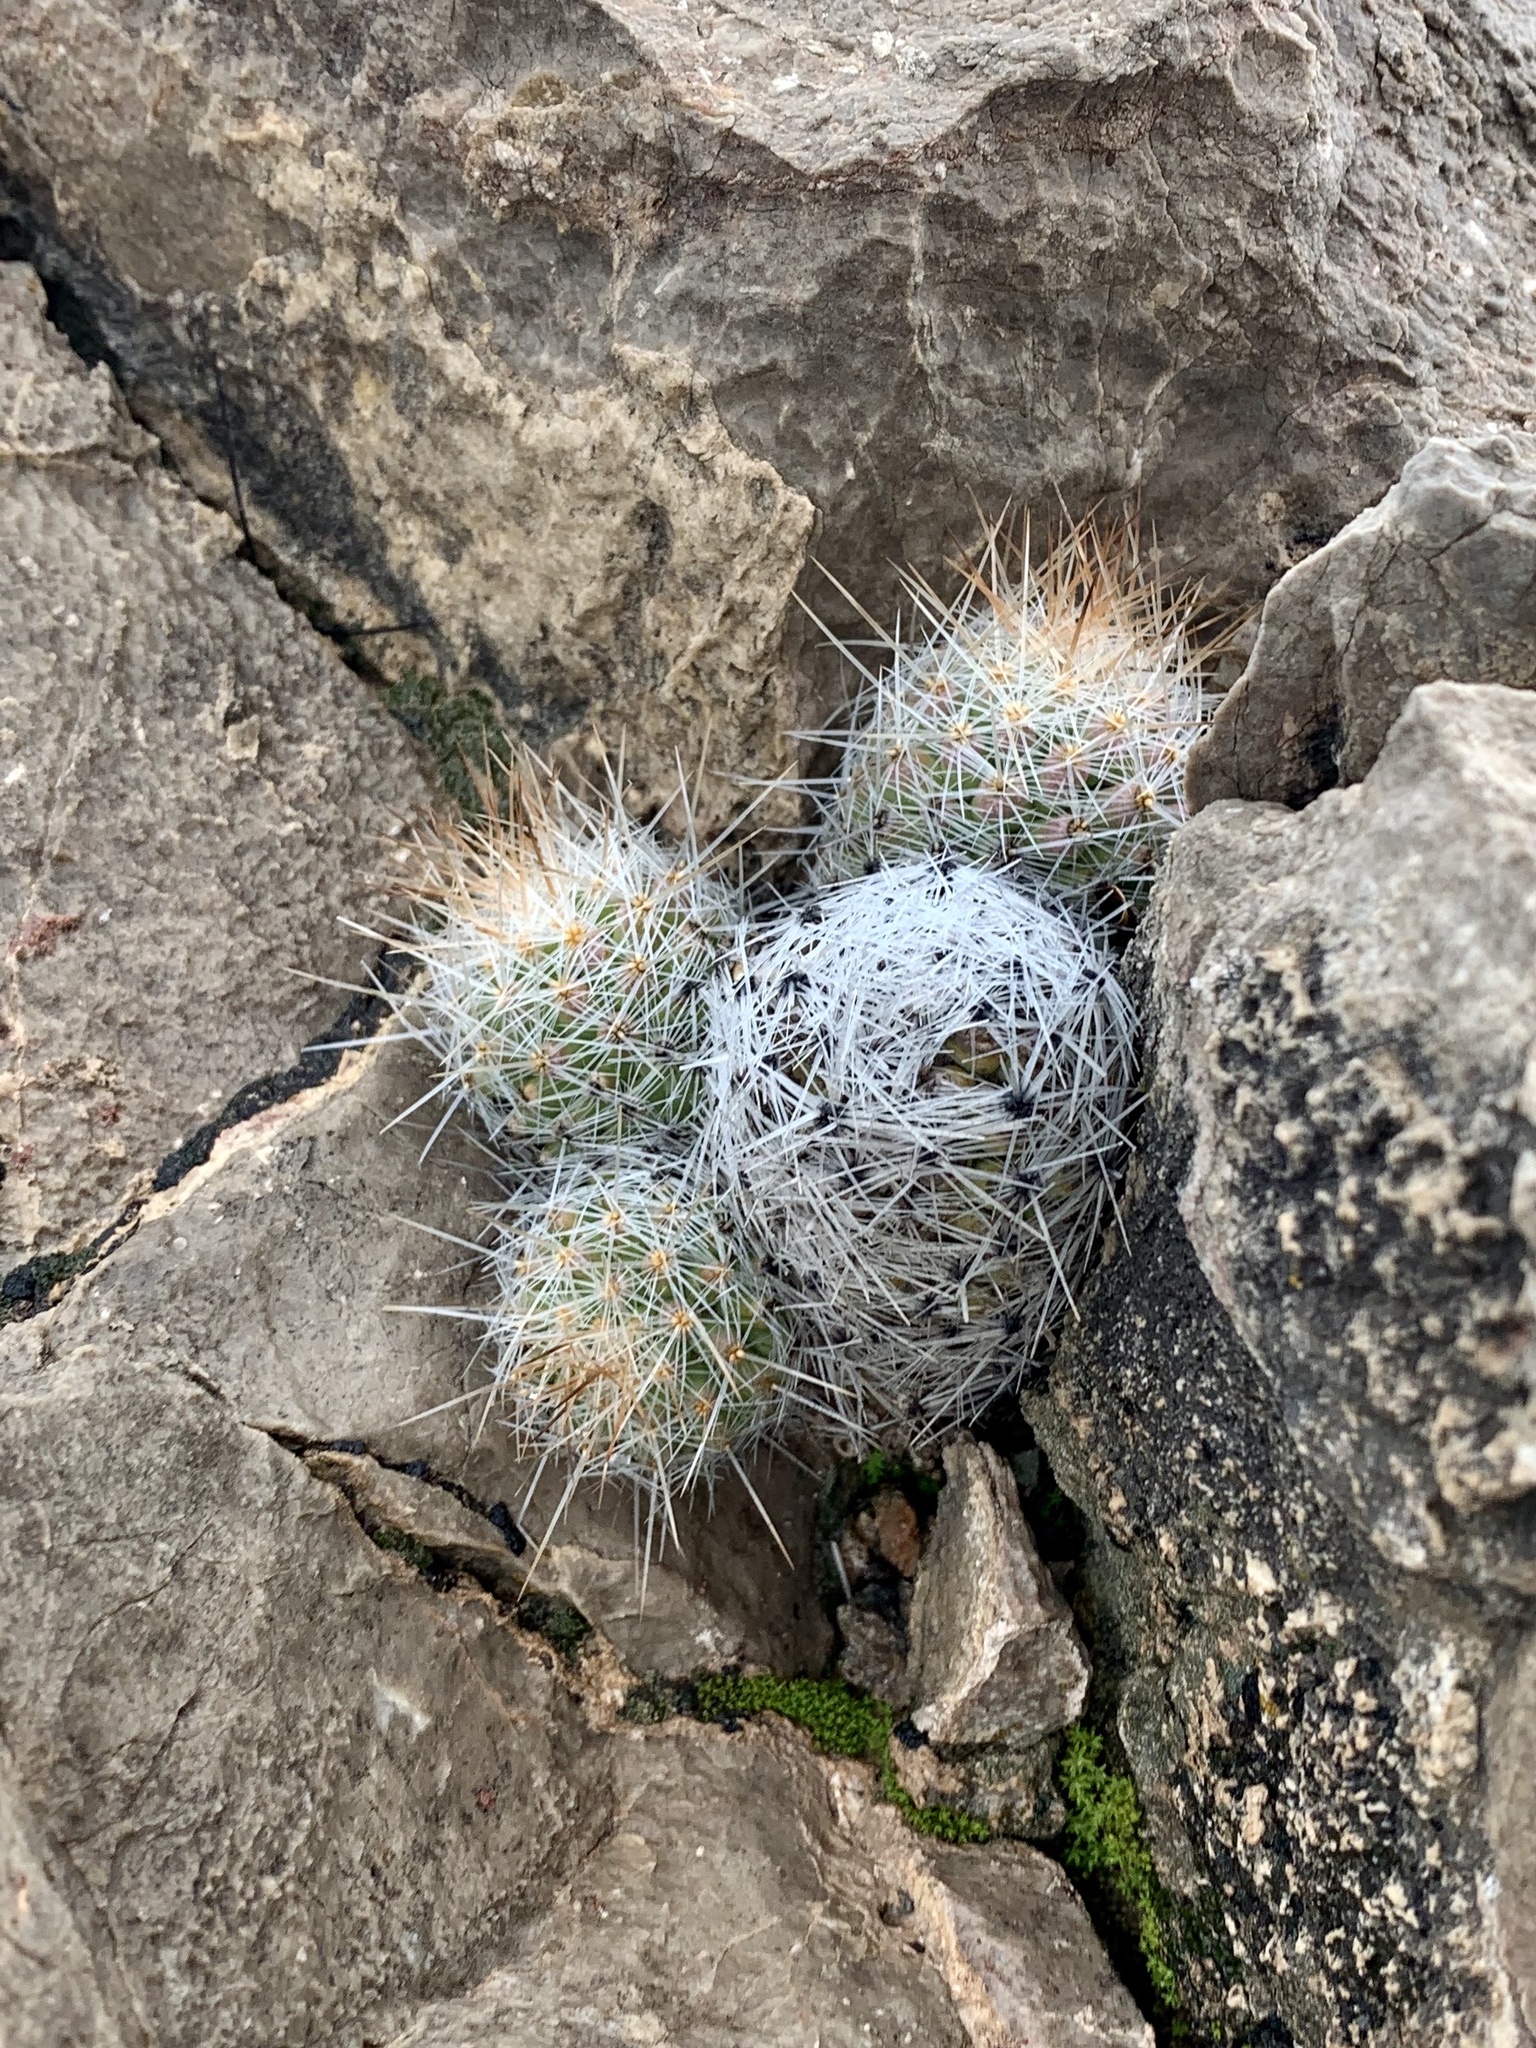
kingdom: Plantae
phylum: Tracheophyta
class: Magnoliopsida
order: Caryophyllales
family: Cactaceae
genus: Pelecyphora
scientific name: Pelecyphora tuberculosa
